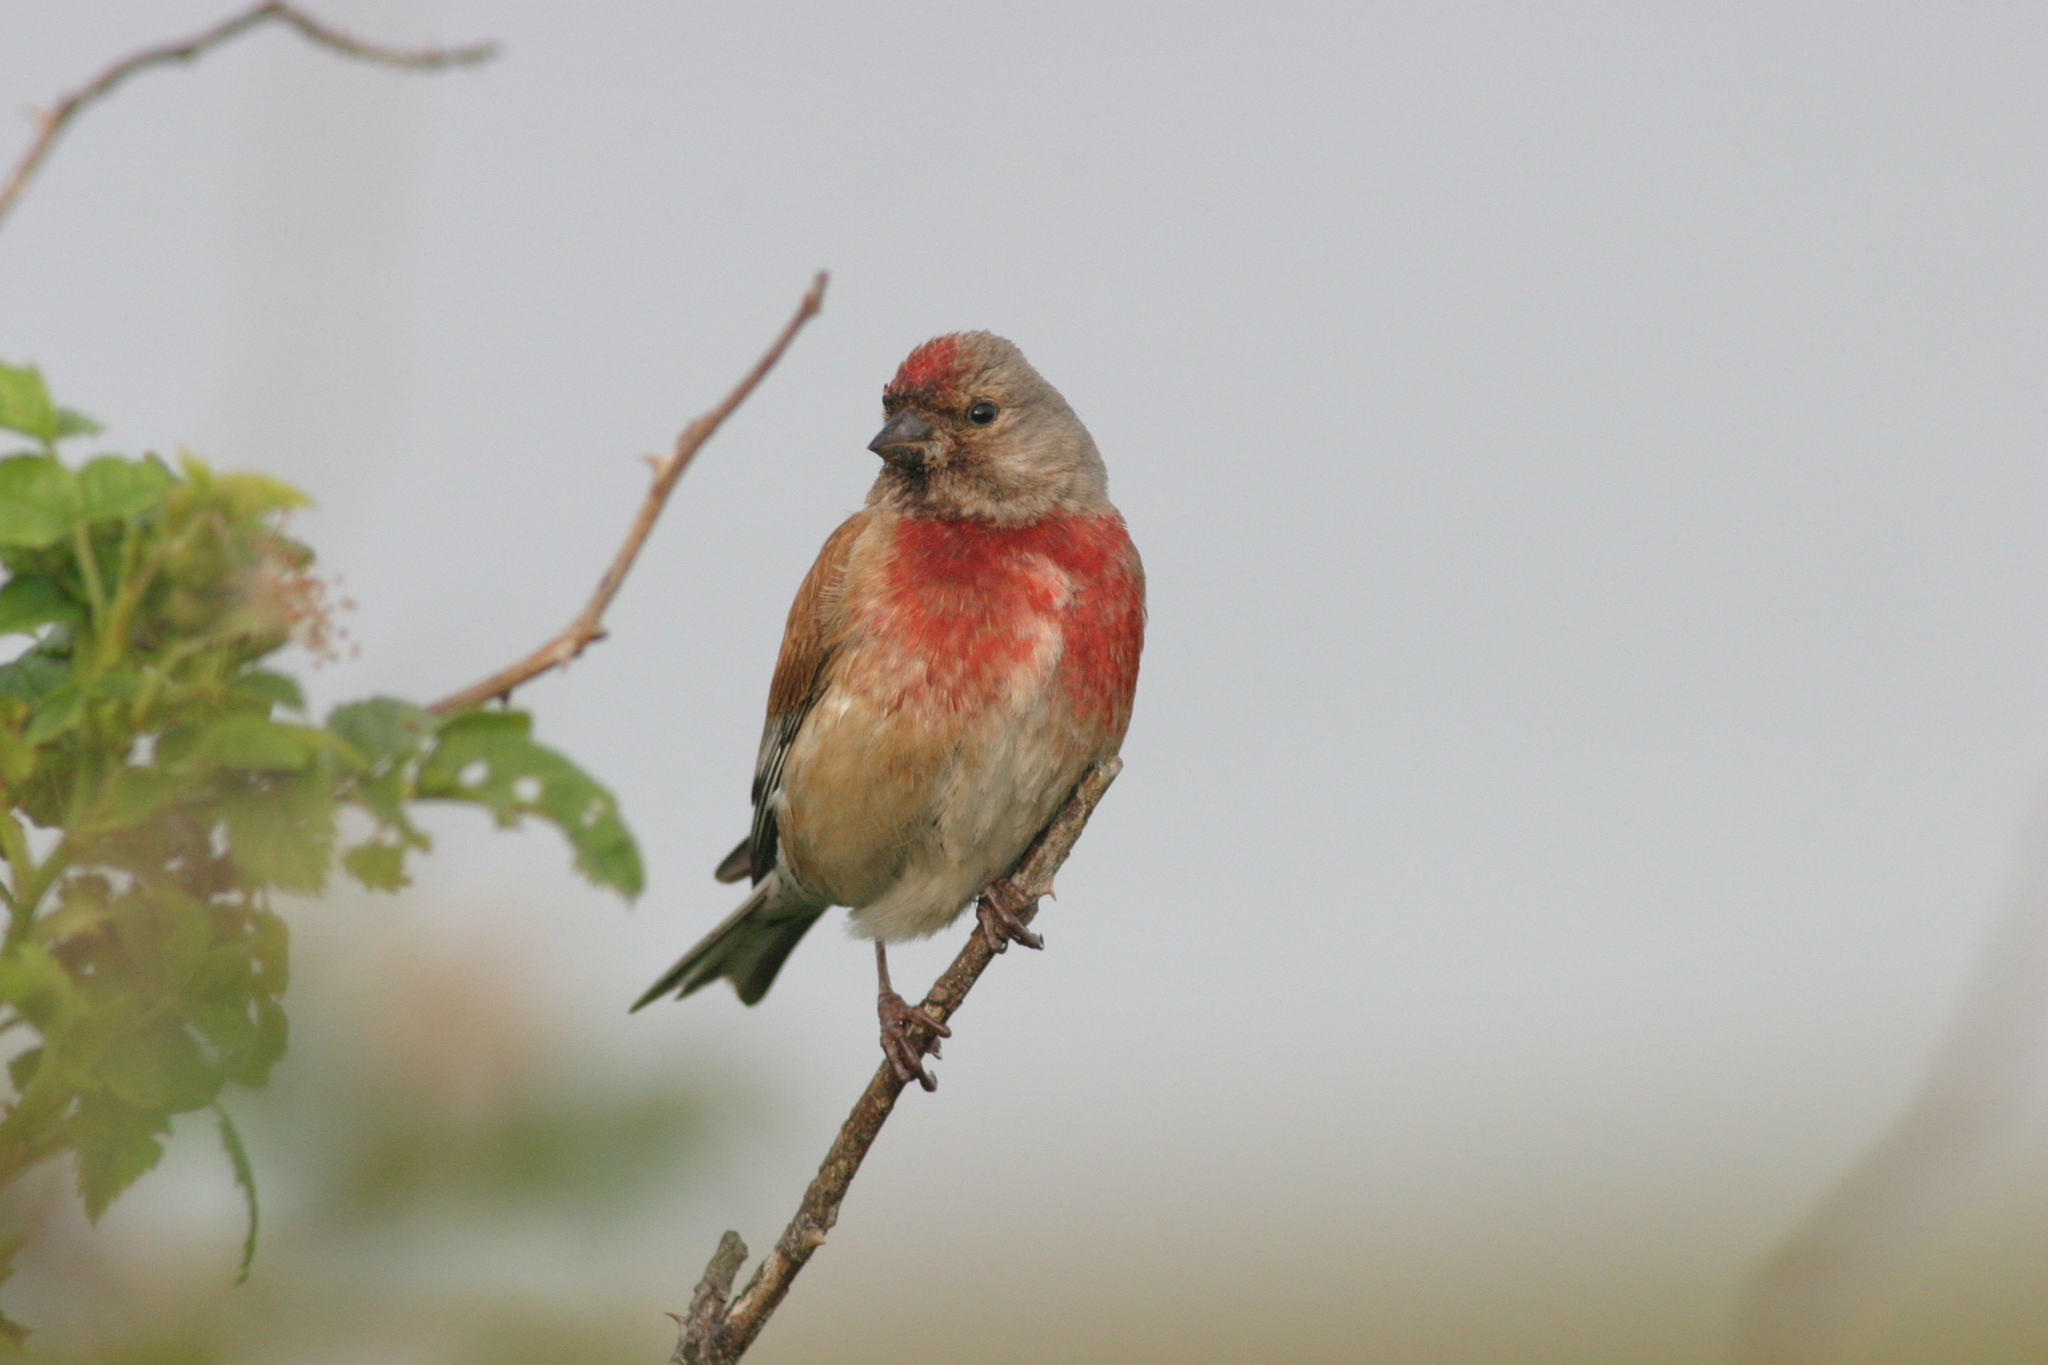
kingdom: Animalia
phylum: Chordata
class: Aves
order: Passeriformes
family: Fringillidae
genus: Linaria
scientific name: Linaria cannabina
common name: Common linnet
